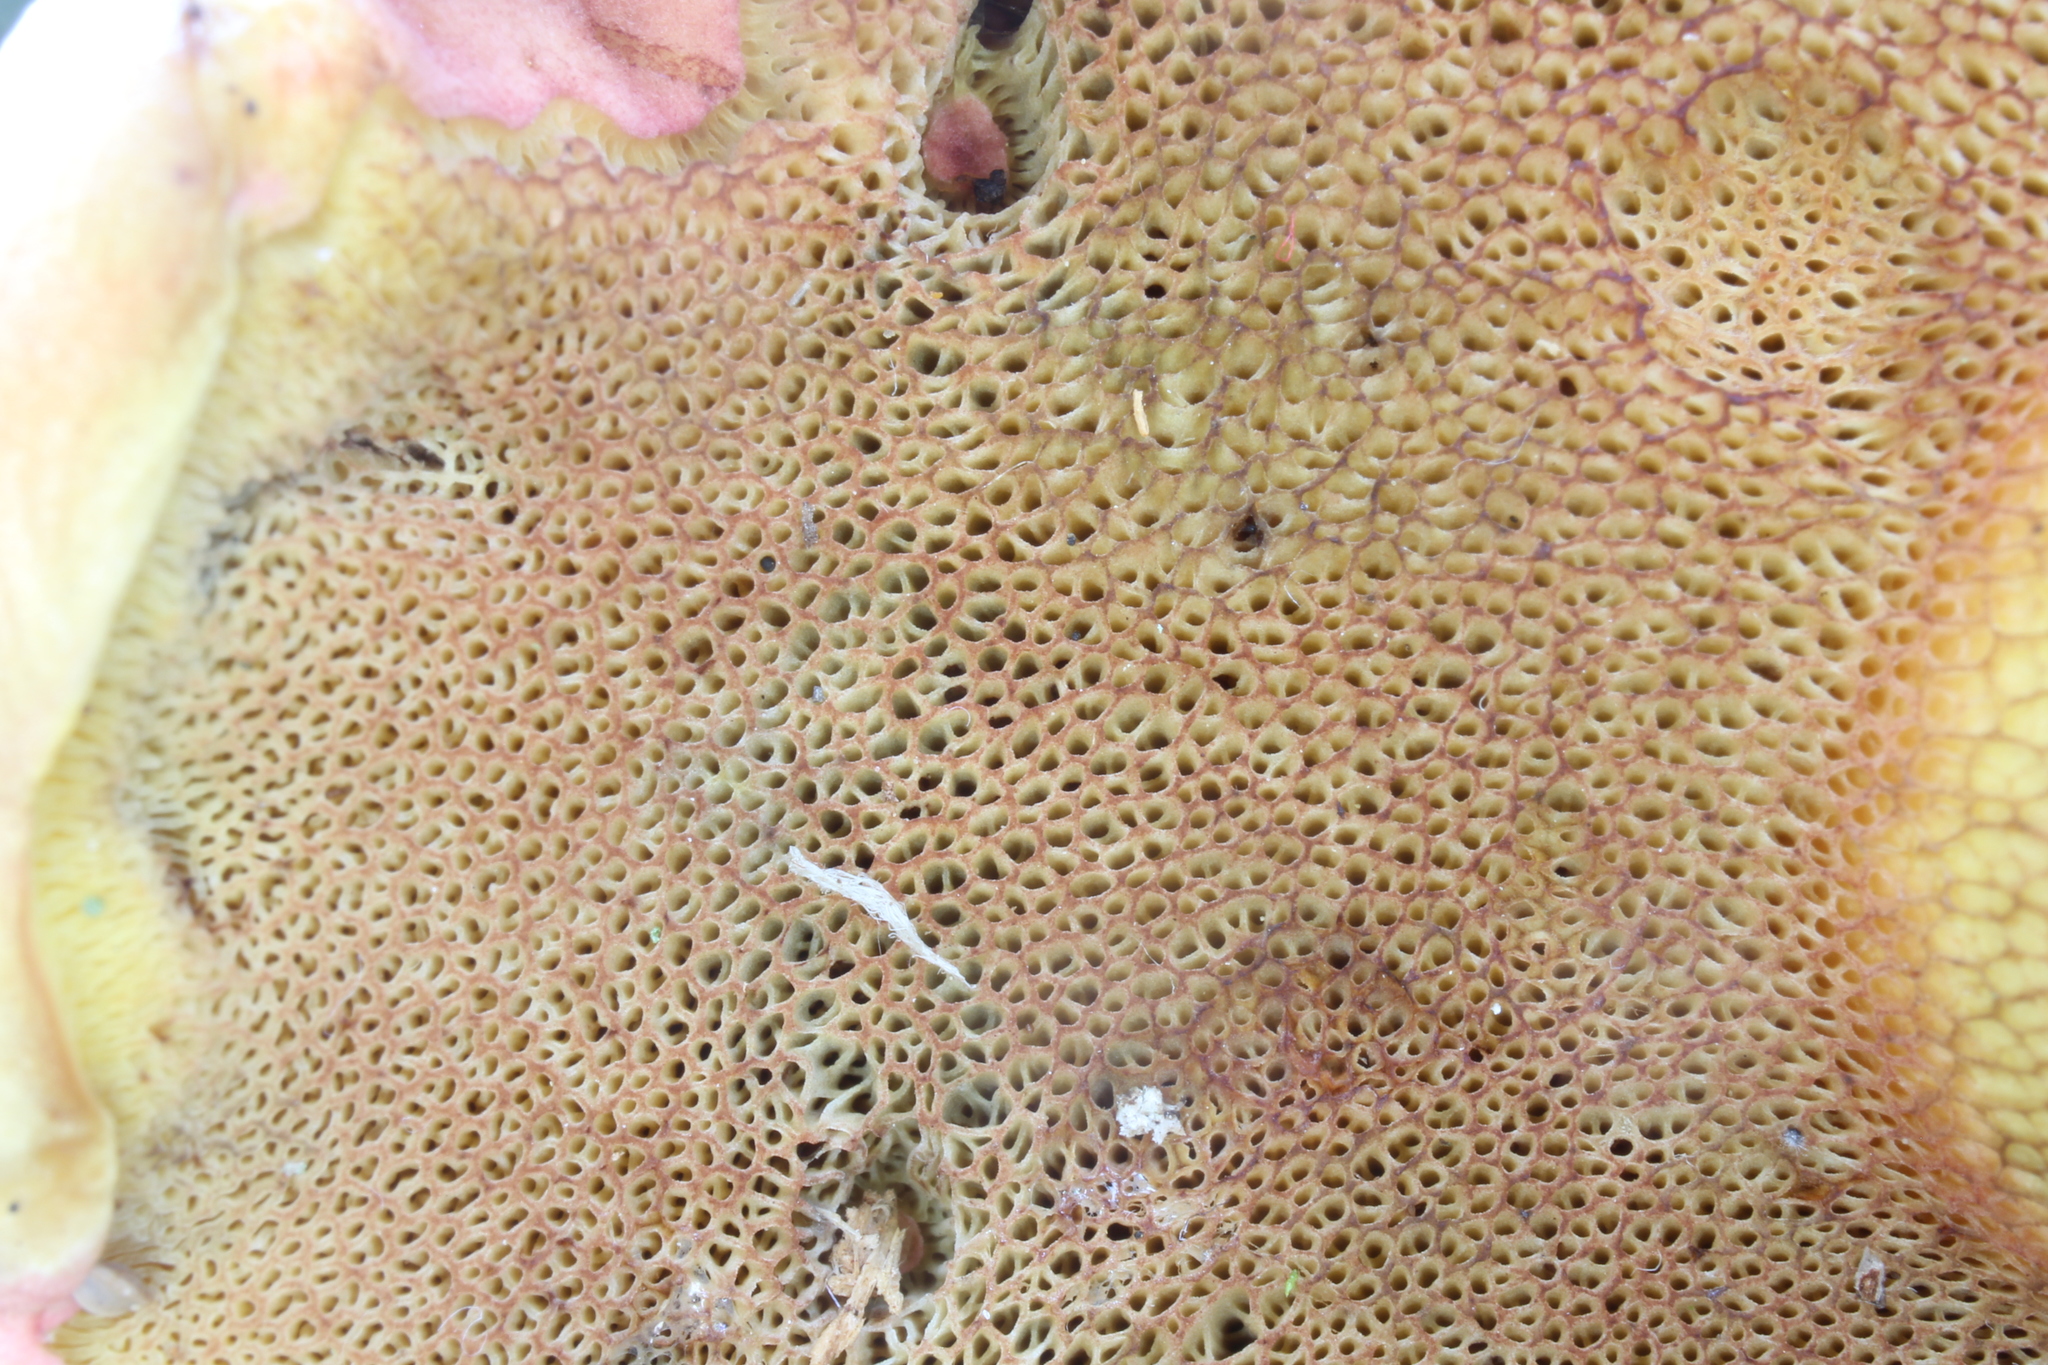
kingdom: Fungi
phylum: Basidiomycota
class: Agaricomycetes
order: Boletales
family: Boletaceae
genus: Lanmaoa
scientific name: Lanmaoa pallidorosea
